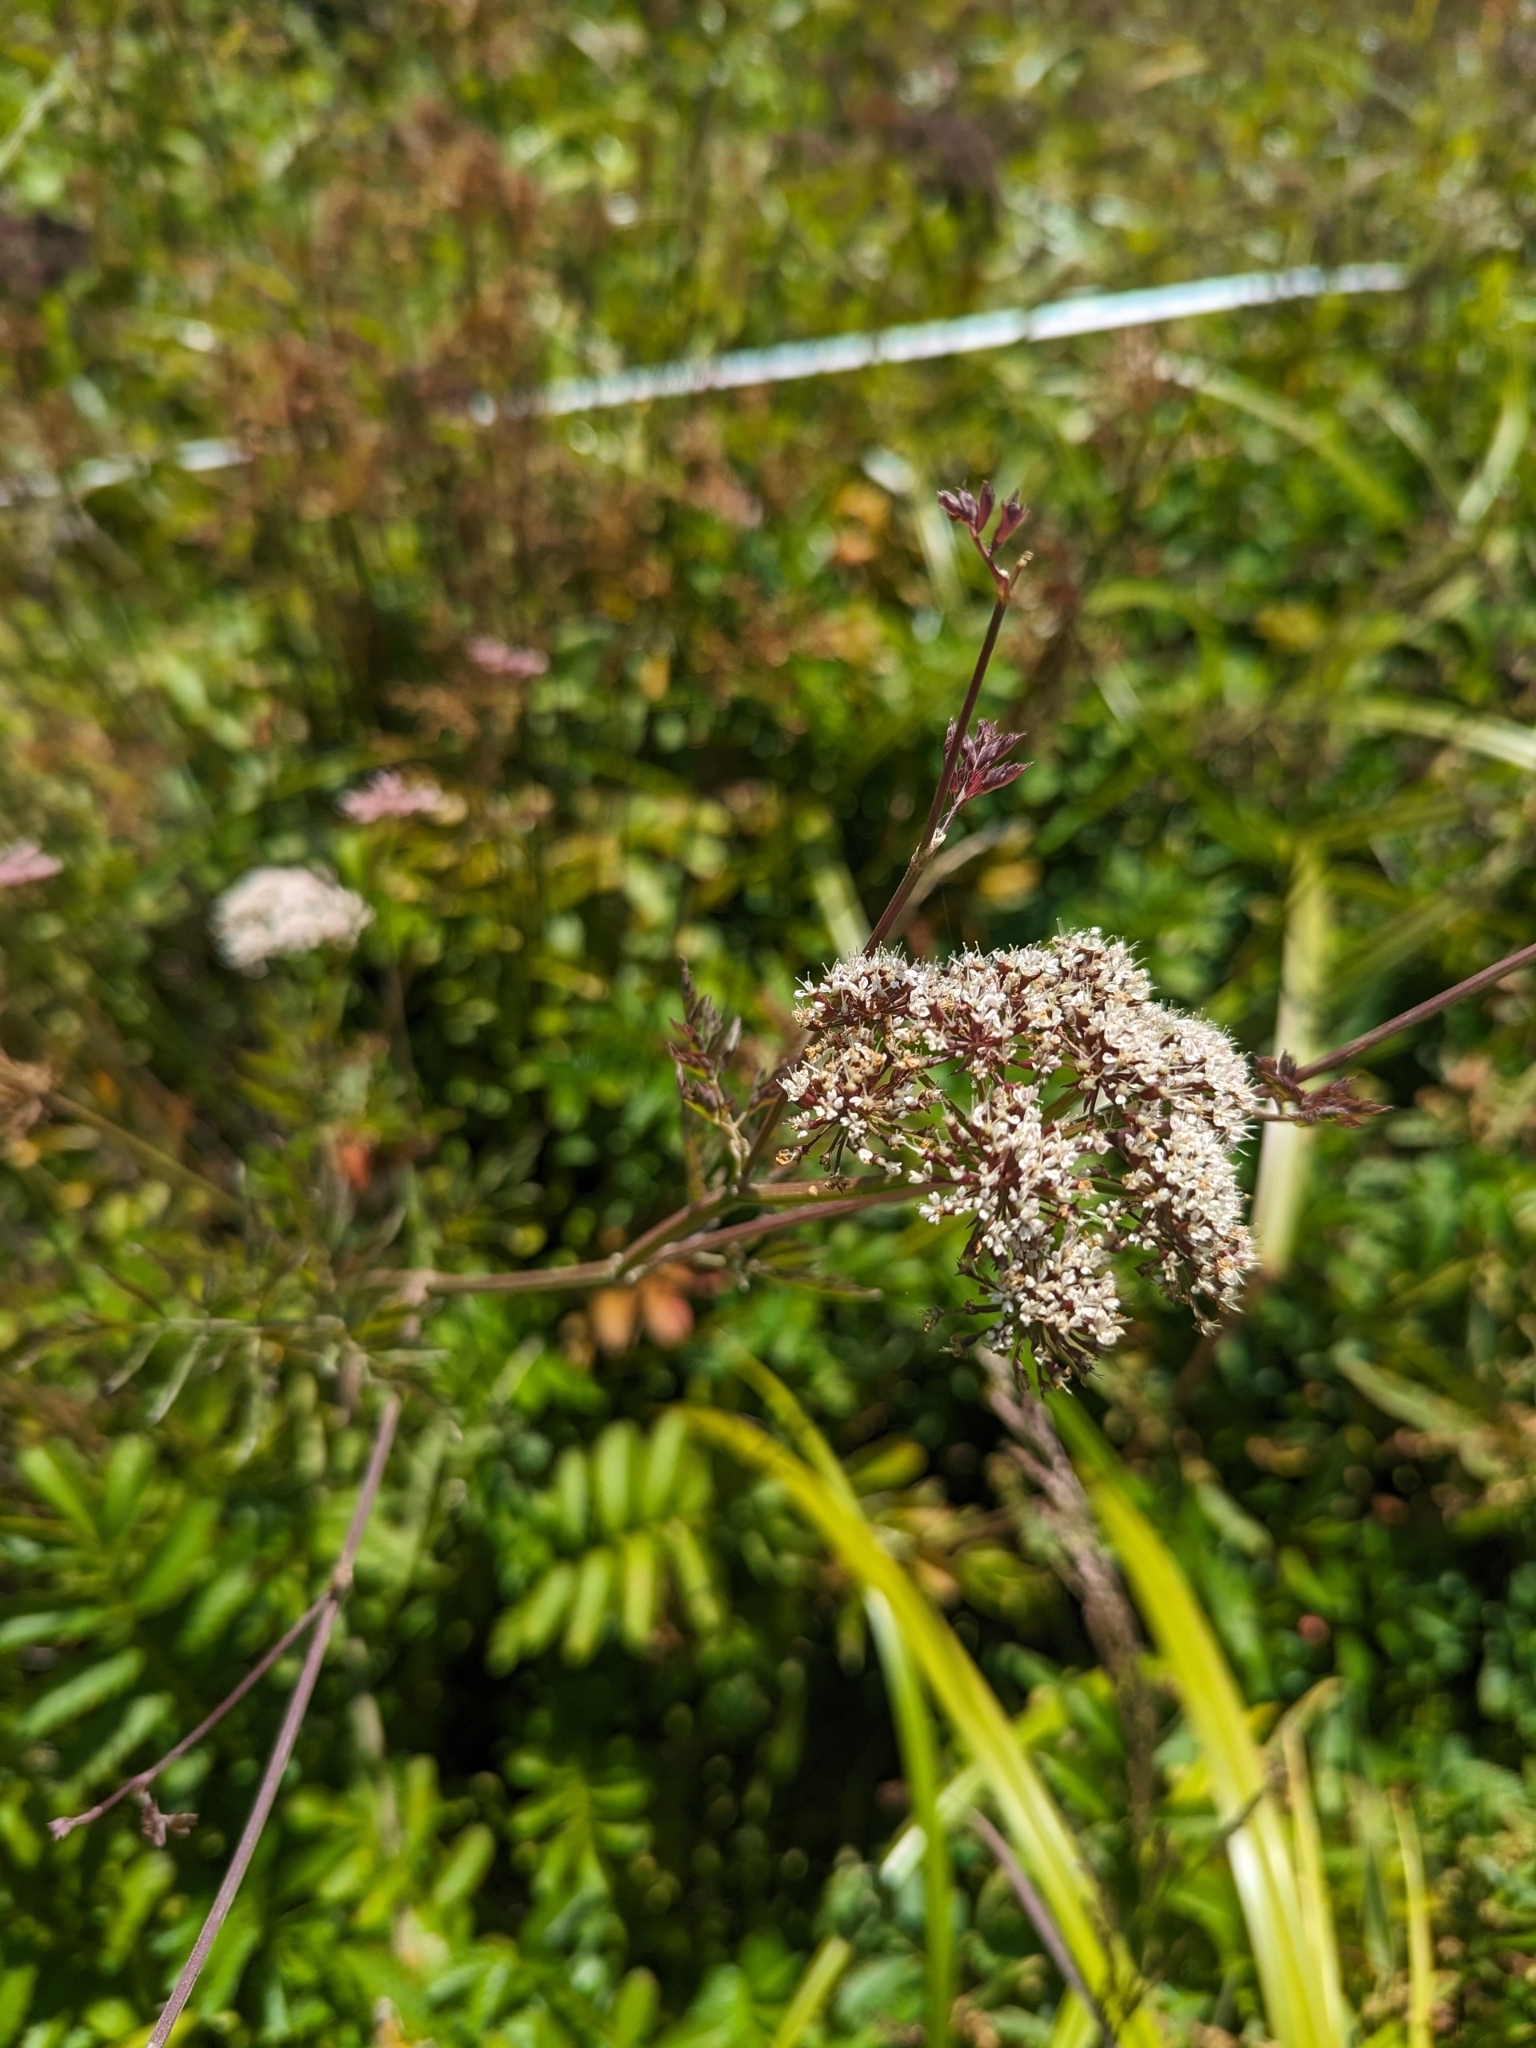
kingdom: Plantae
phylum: Tracheophyta
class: Magnoliopsida
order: Apiales
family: Apiaceae
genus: Oenanthe
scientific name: Oenanthe sarmentosa
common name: American water-parsley
